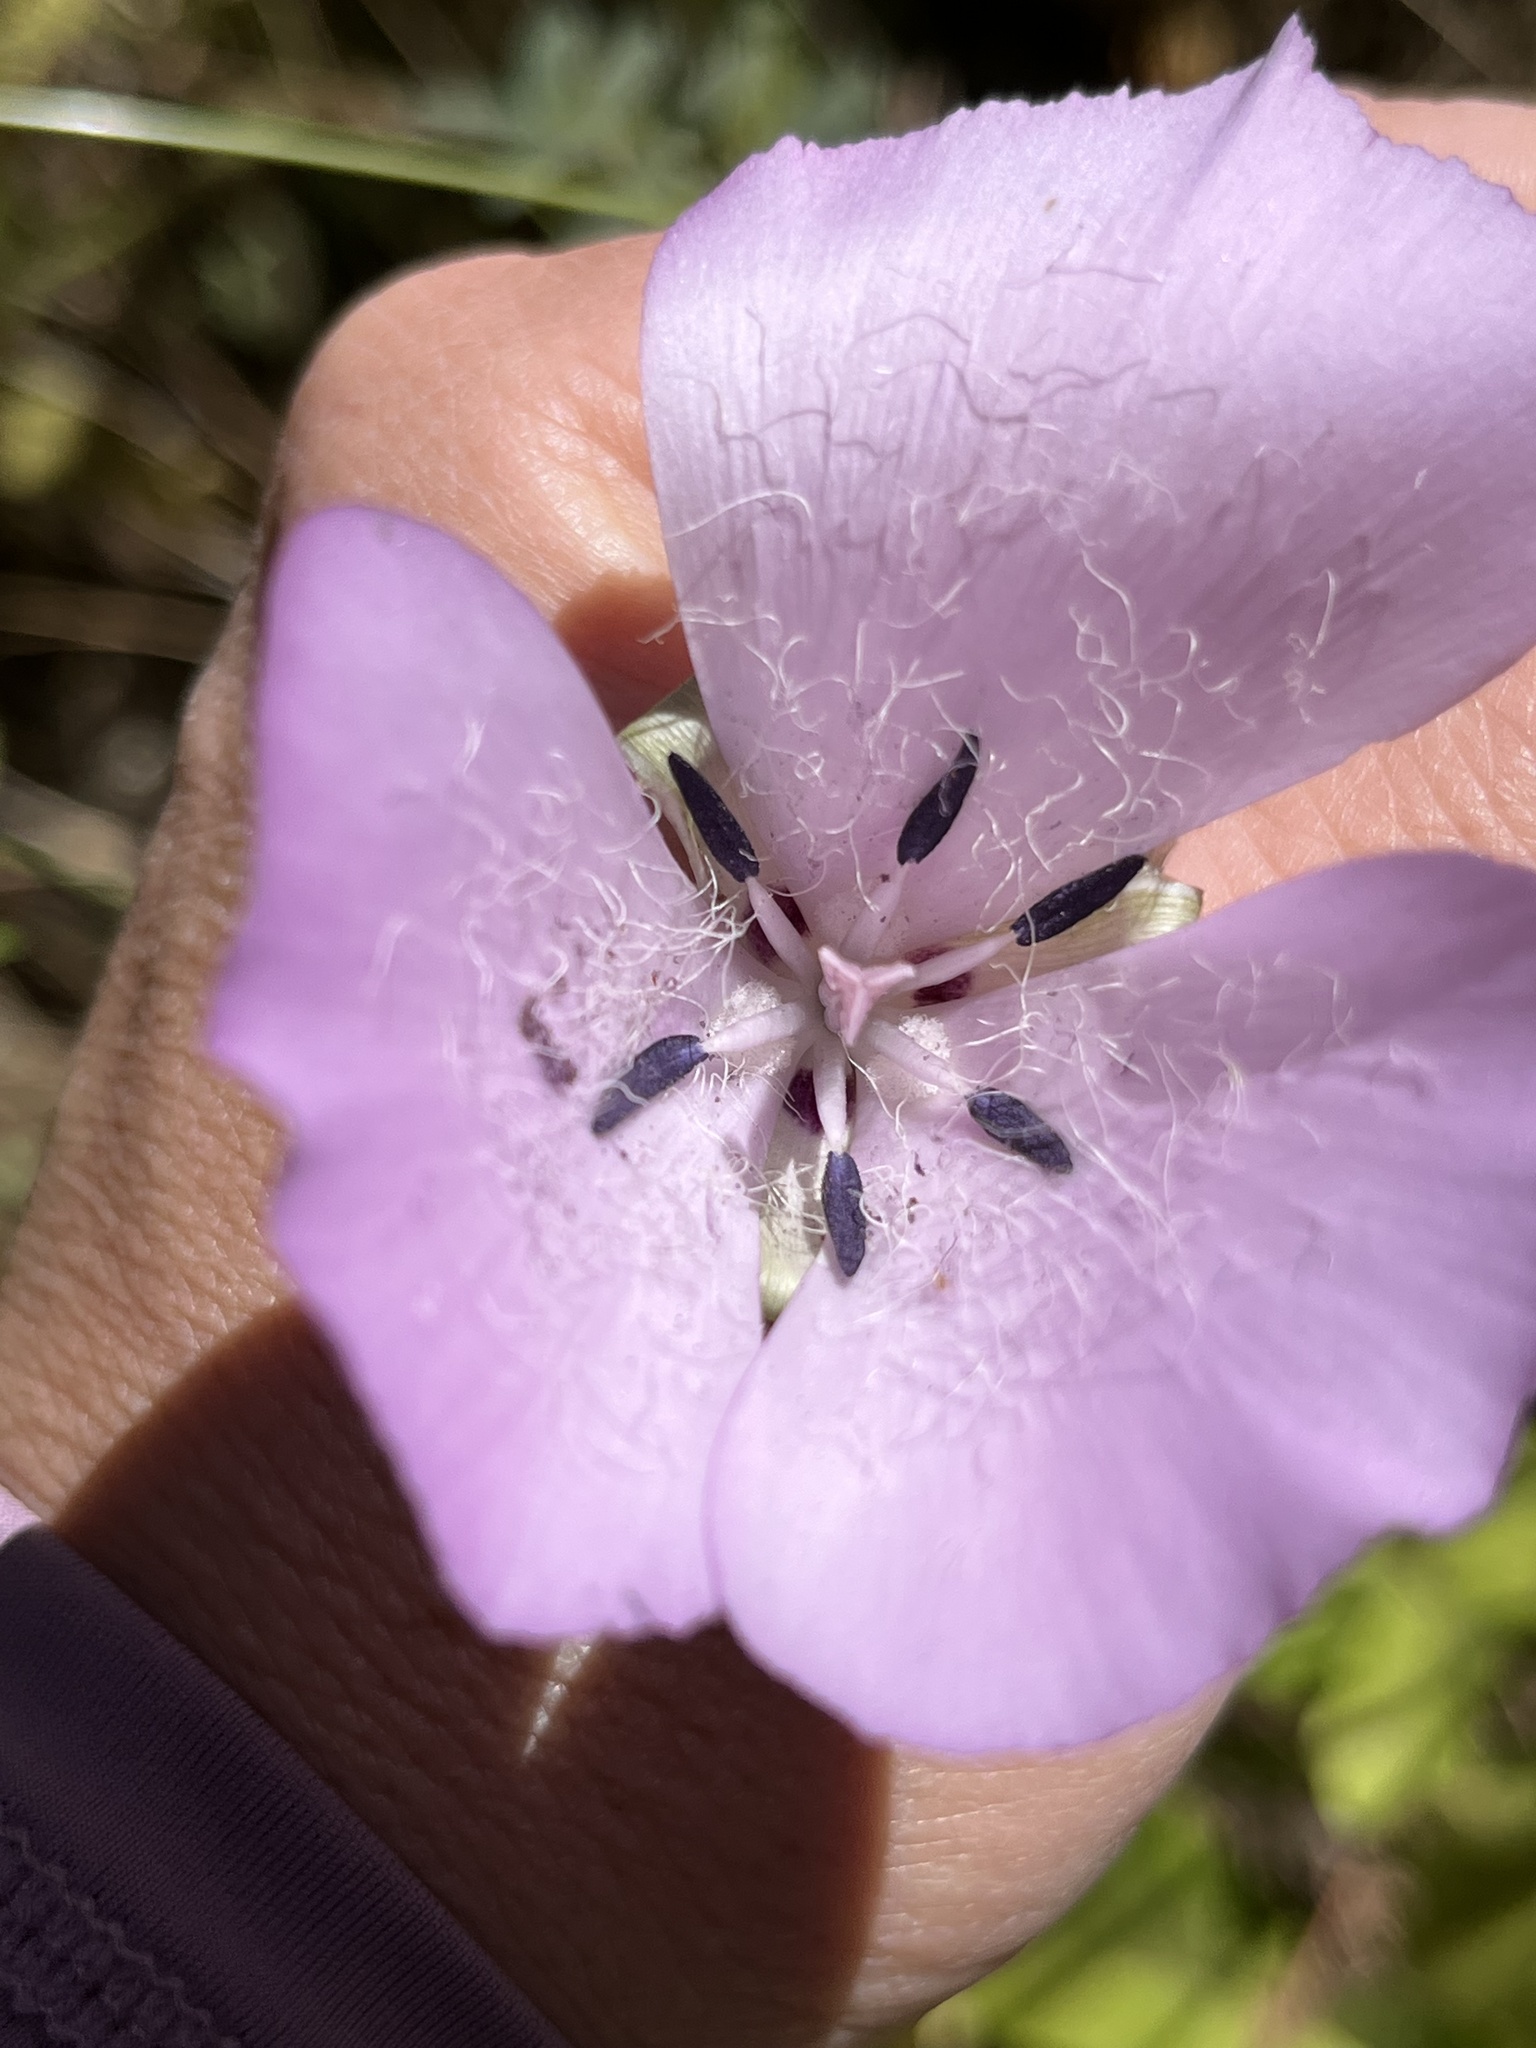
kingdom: Plantae
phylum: Tracheophyta
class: Liliopsida
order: Liliales
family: Liliaceae
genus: Calochortus
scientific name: Calochortus splendens
